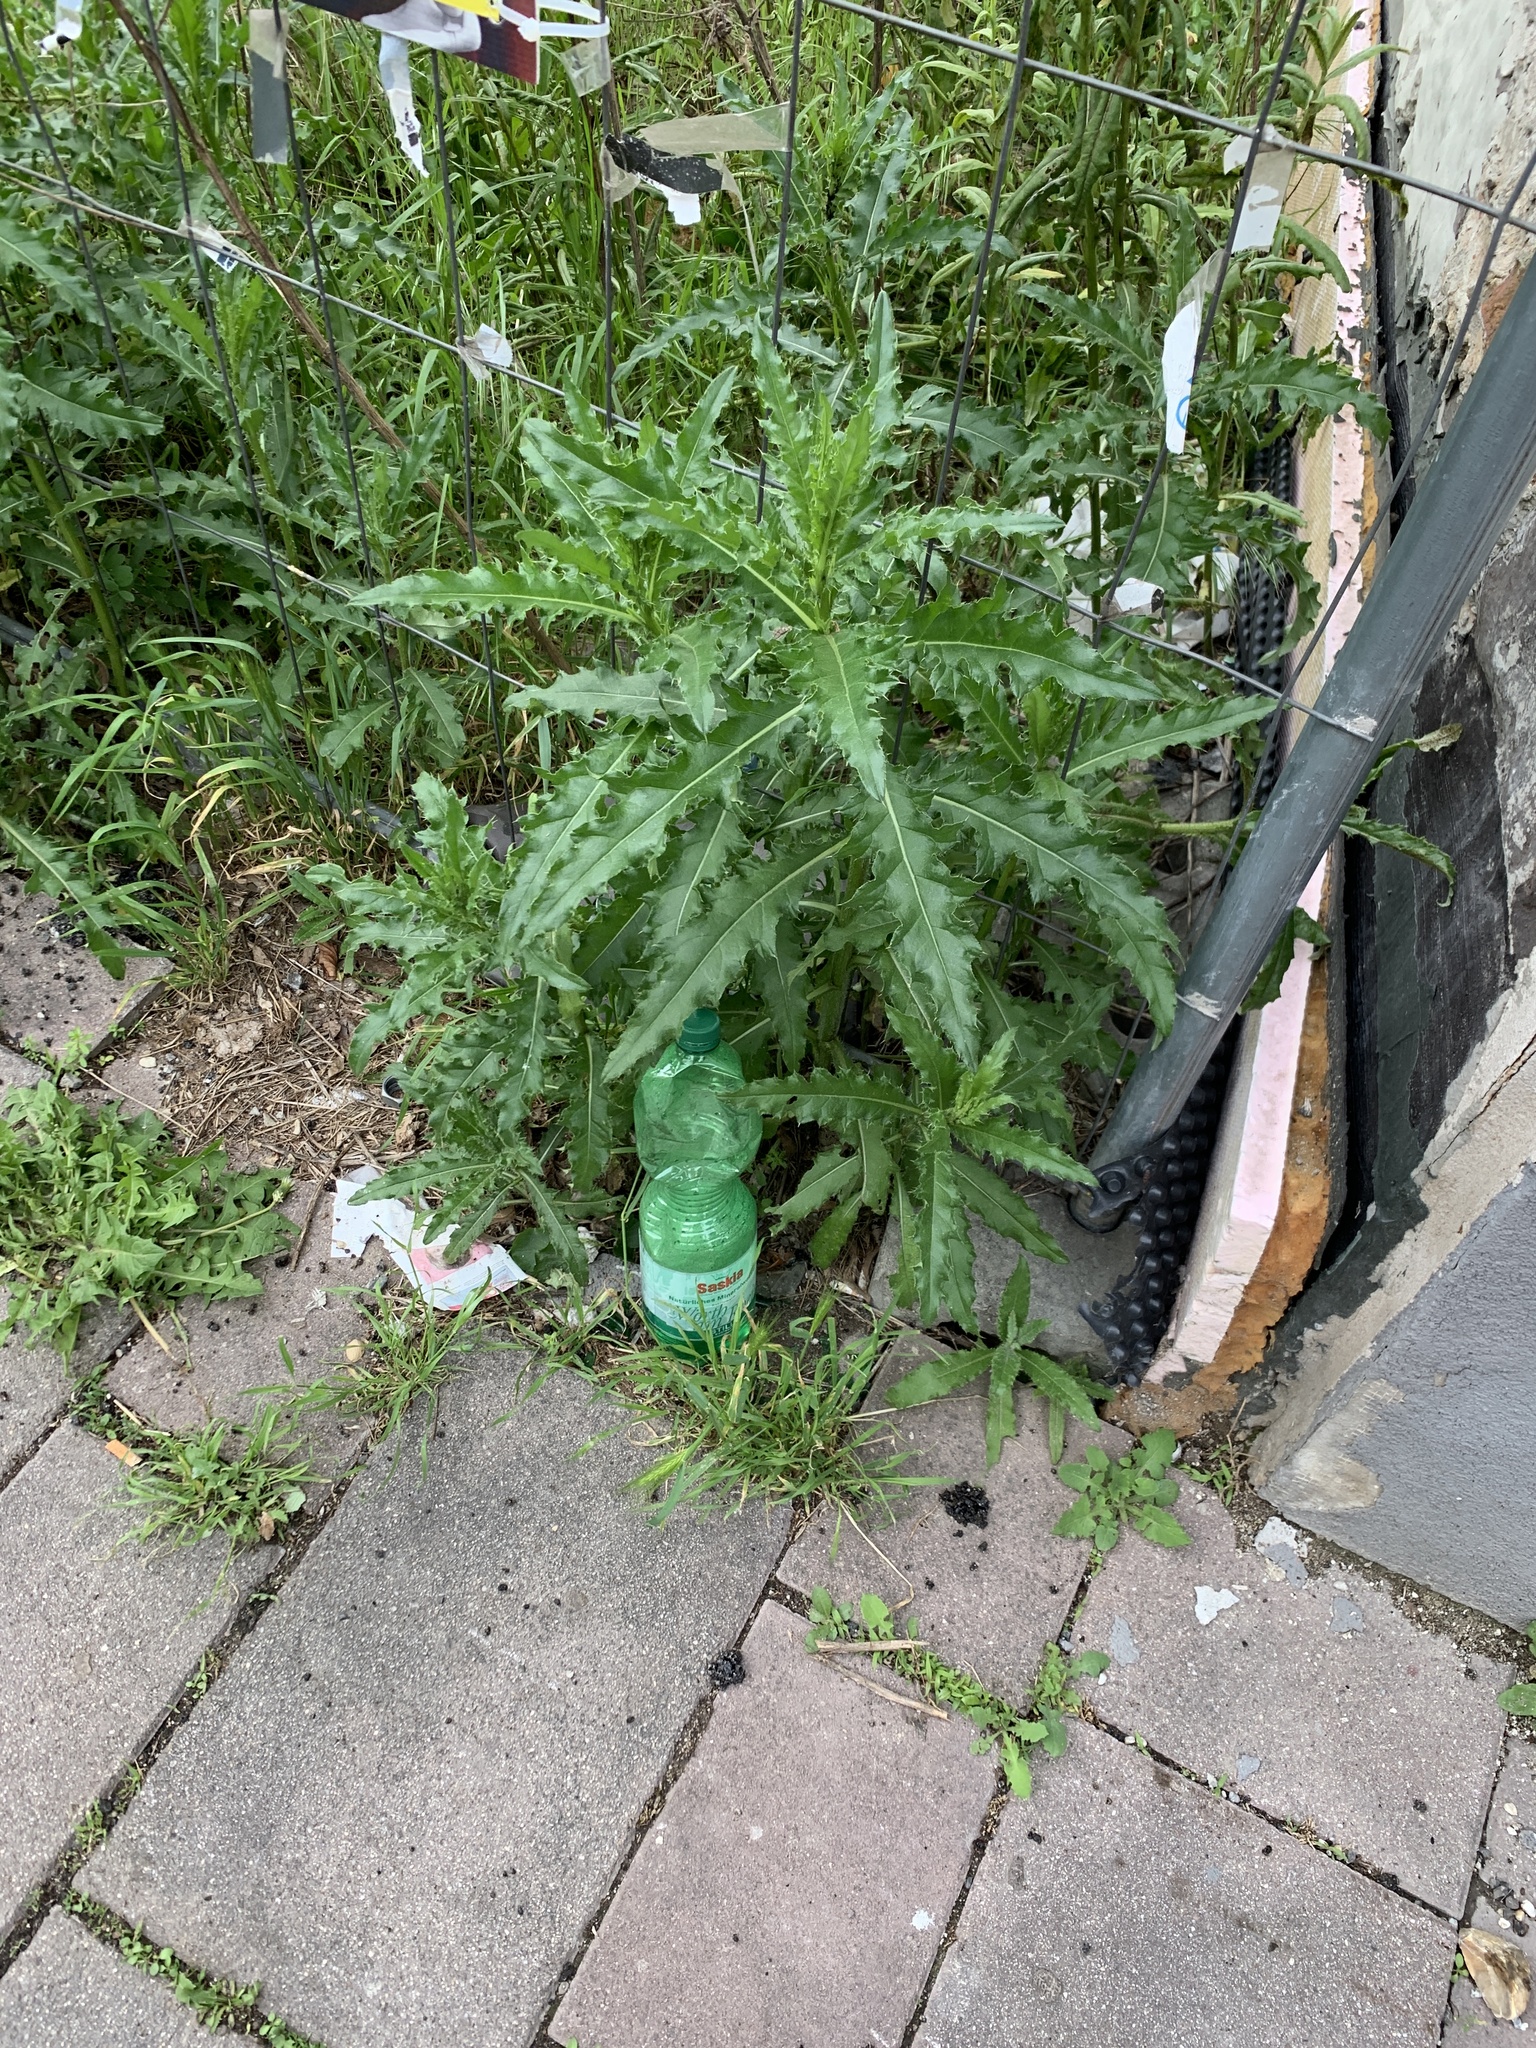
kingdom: Plantae
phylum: Tracheophyta
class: Magnoliopsida
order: Asterales
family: Asteraceae
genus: Cirsium
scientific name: Cirsium arvense
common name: Creeping thistle
